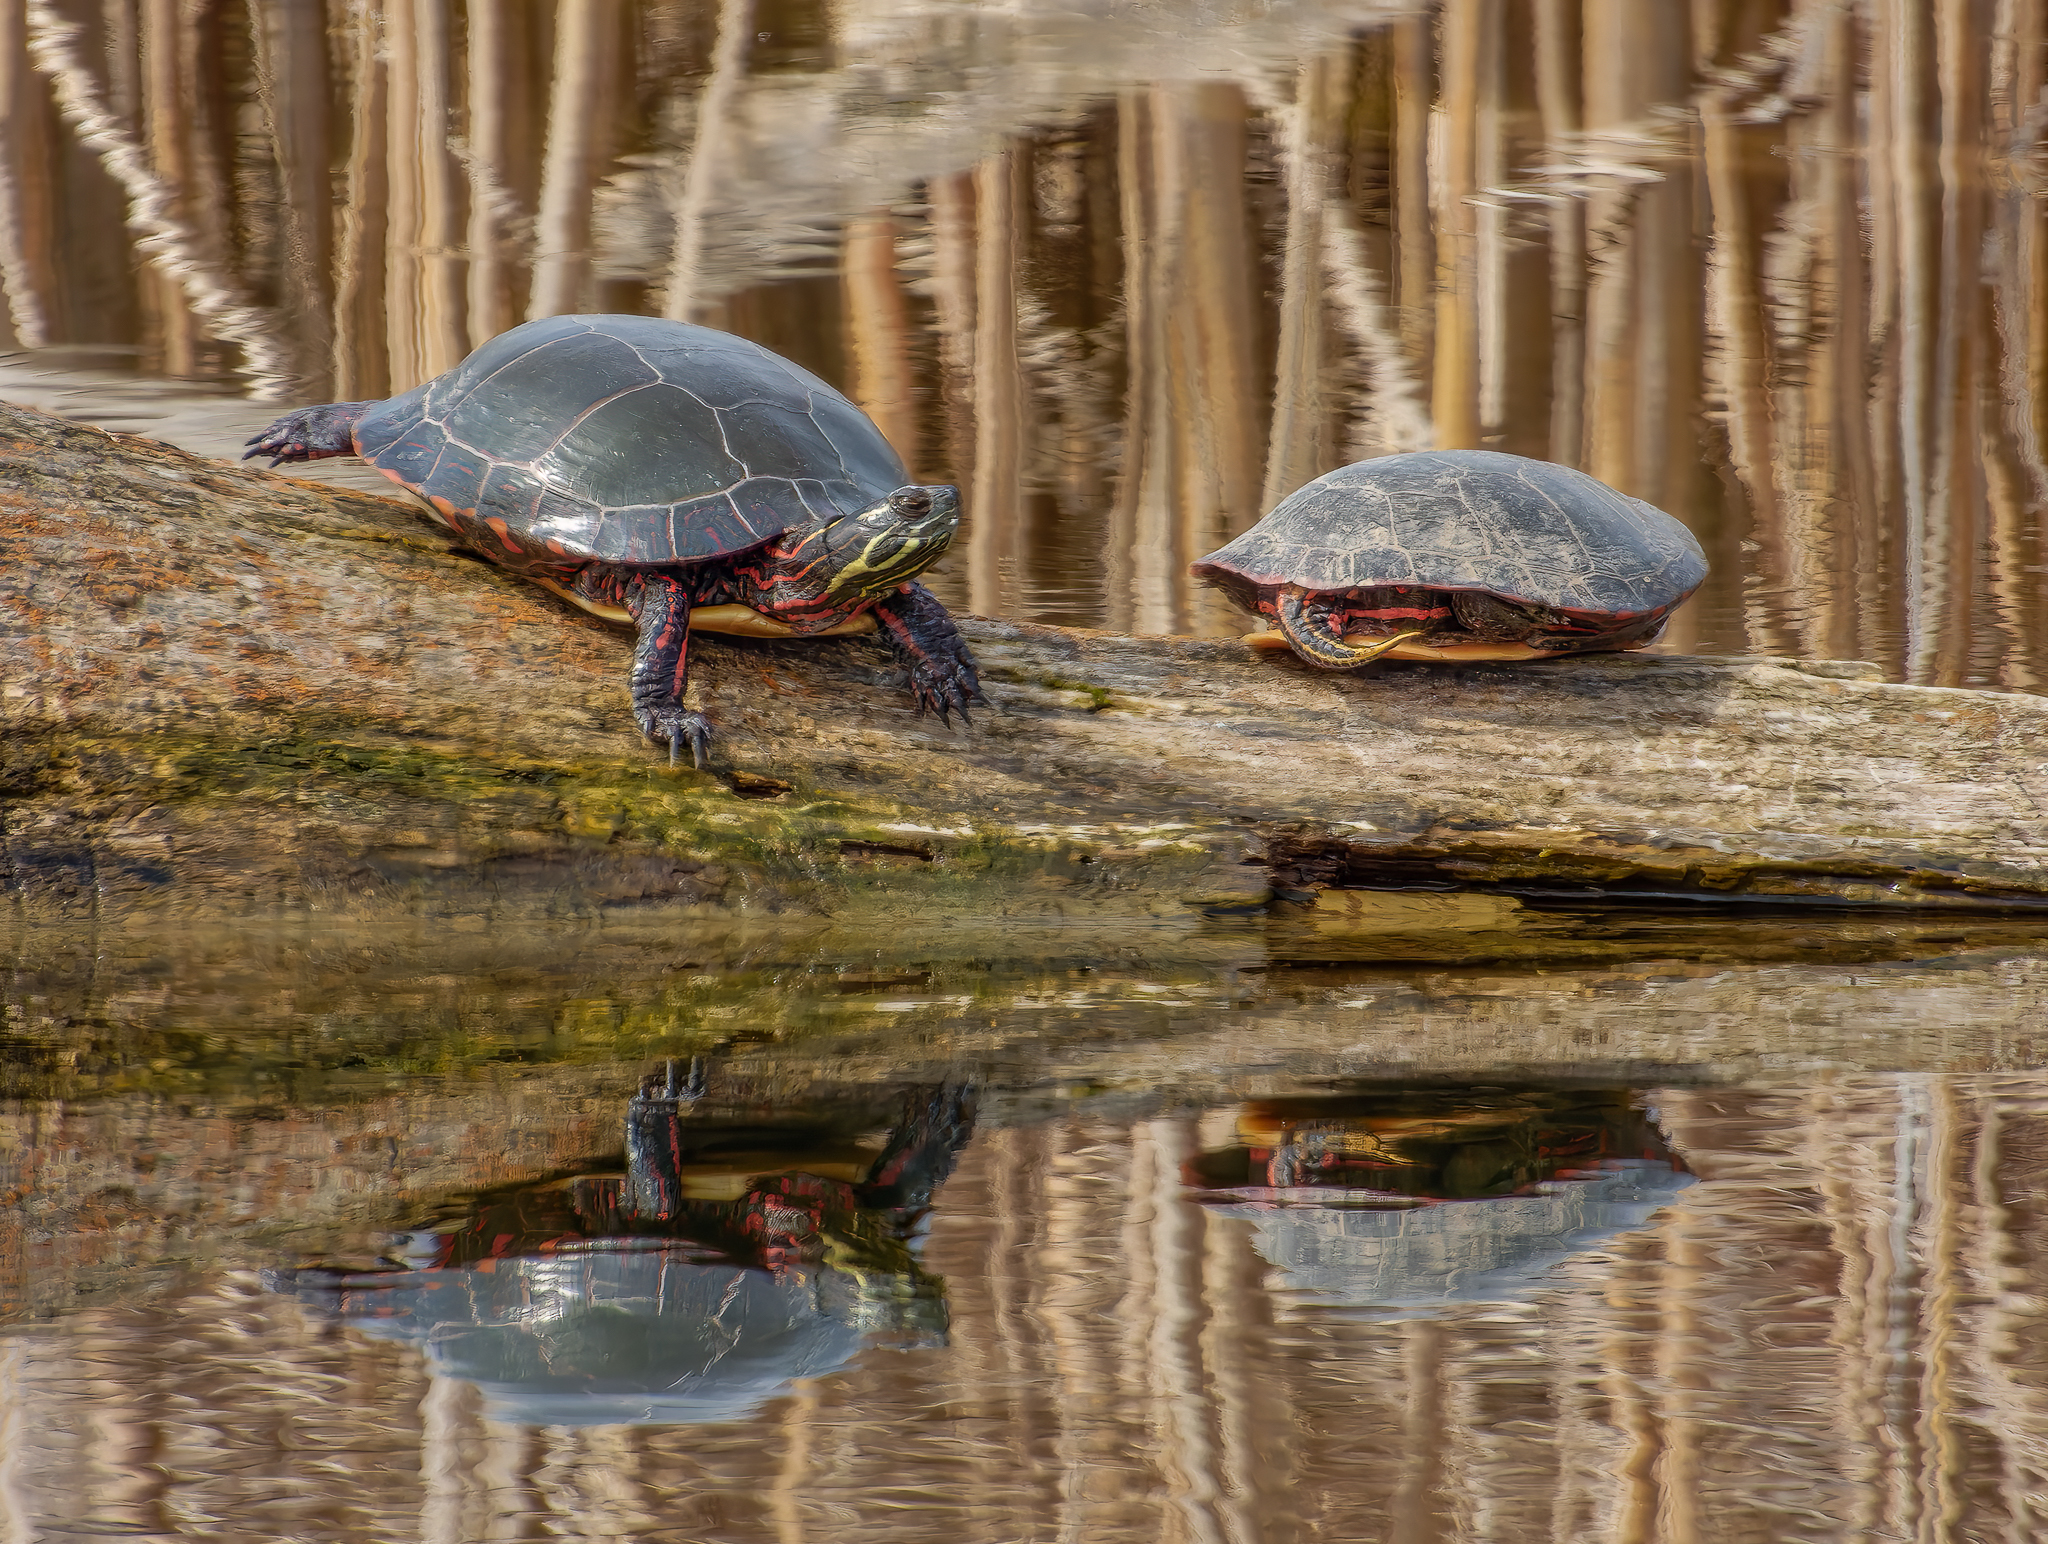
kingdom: Animalia
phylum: Chordata
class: Testudines
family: Emydidae
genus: Chrysemys
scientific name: Chrysemys picta
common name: Painted turtle
